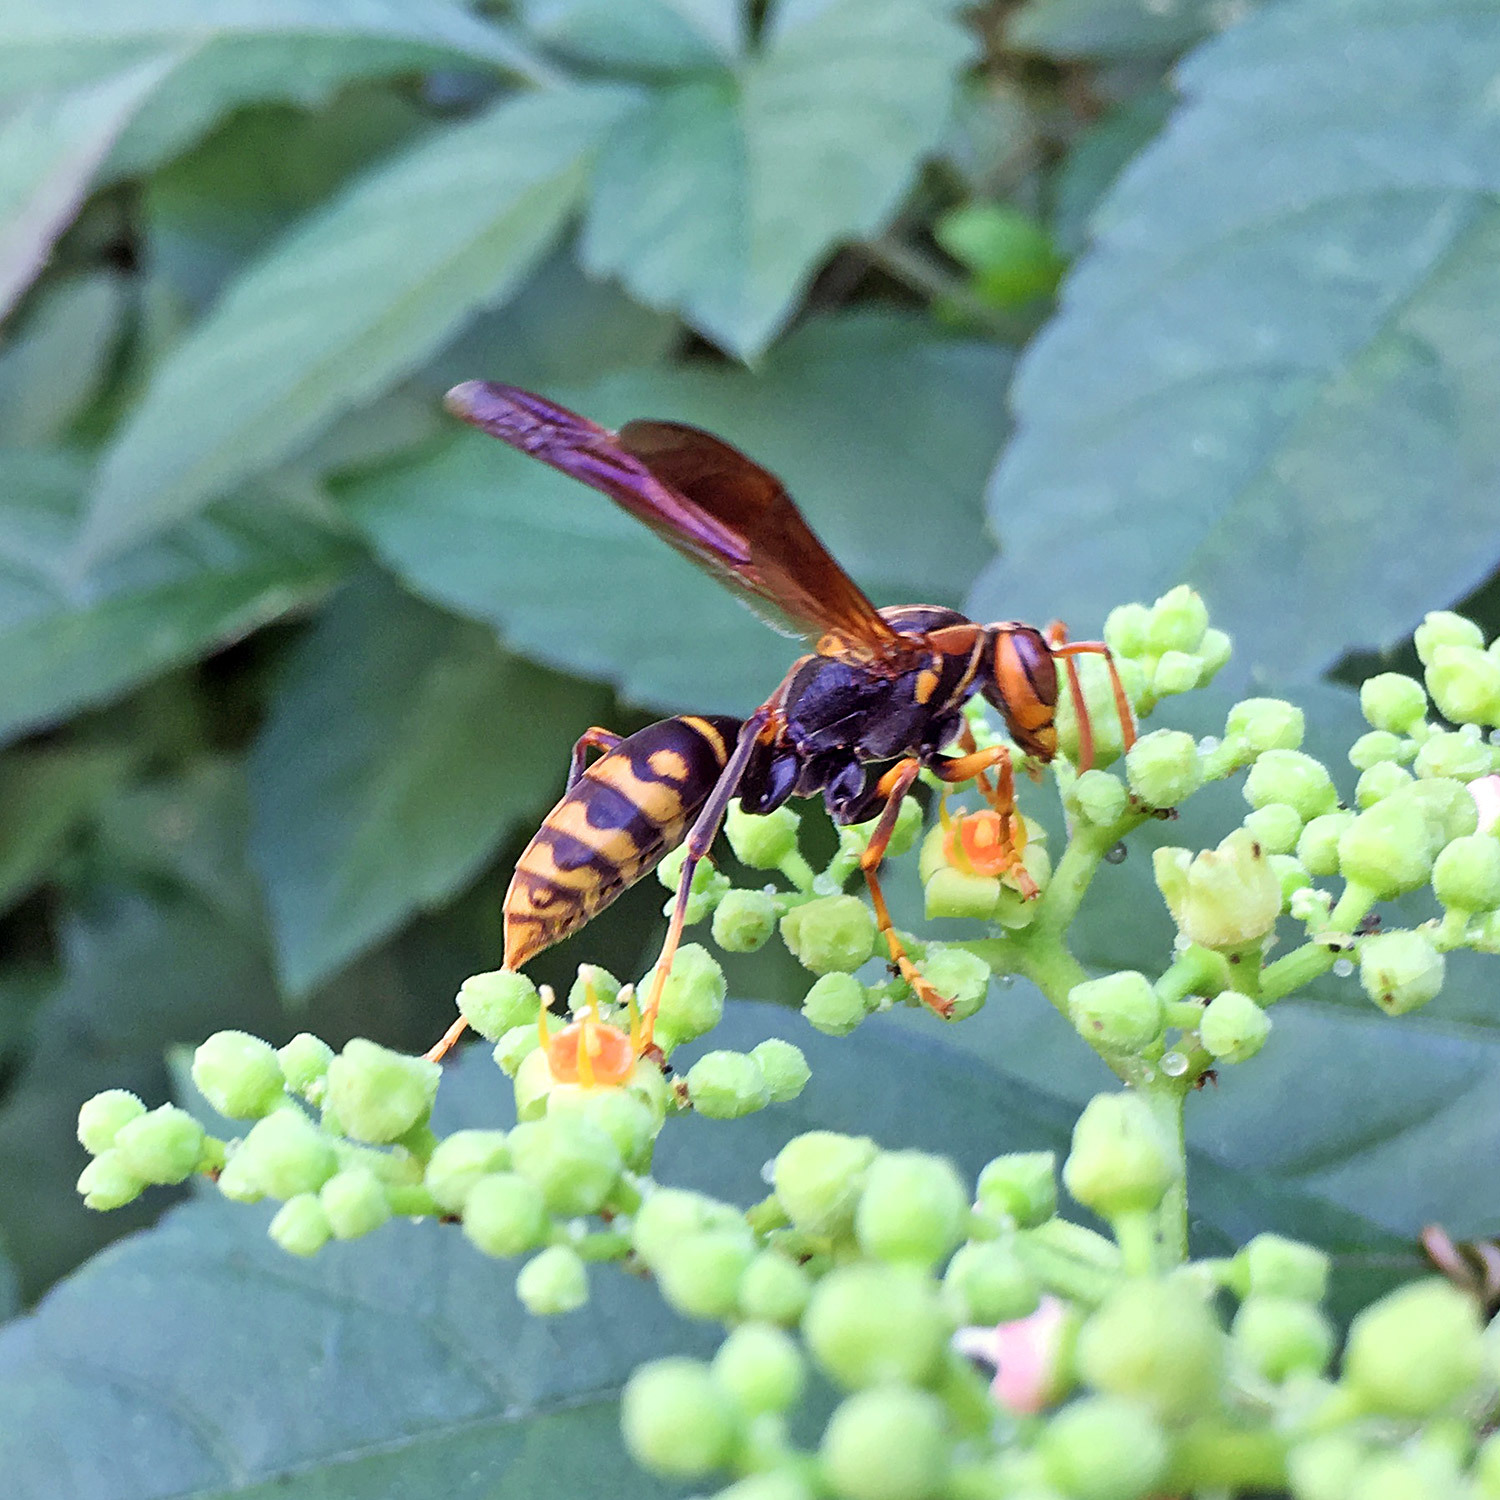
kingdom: Animalia
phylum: Arthropoda
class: Insecta
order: Hymenoptera
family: Eumenidae
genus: Polistes
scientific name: Polistes jokahamae
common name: Paper wasp
